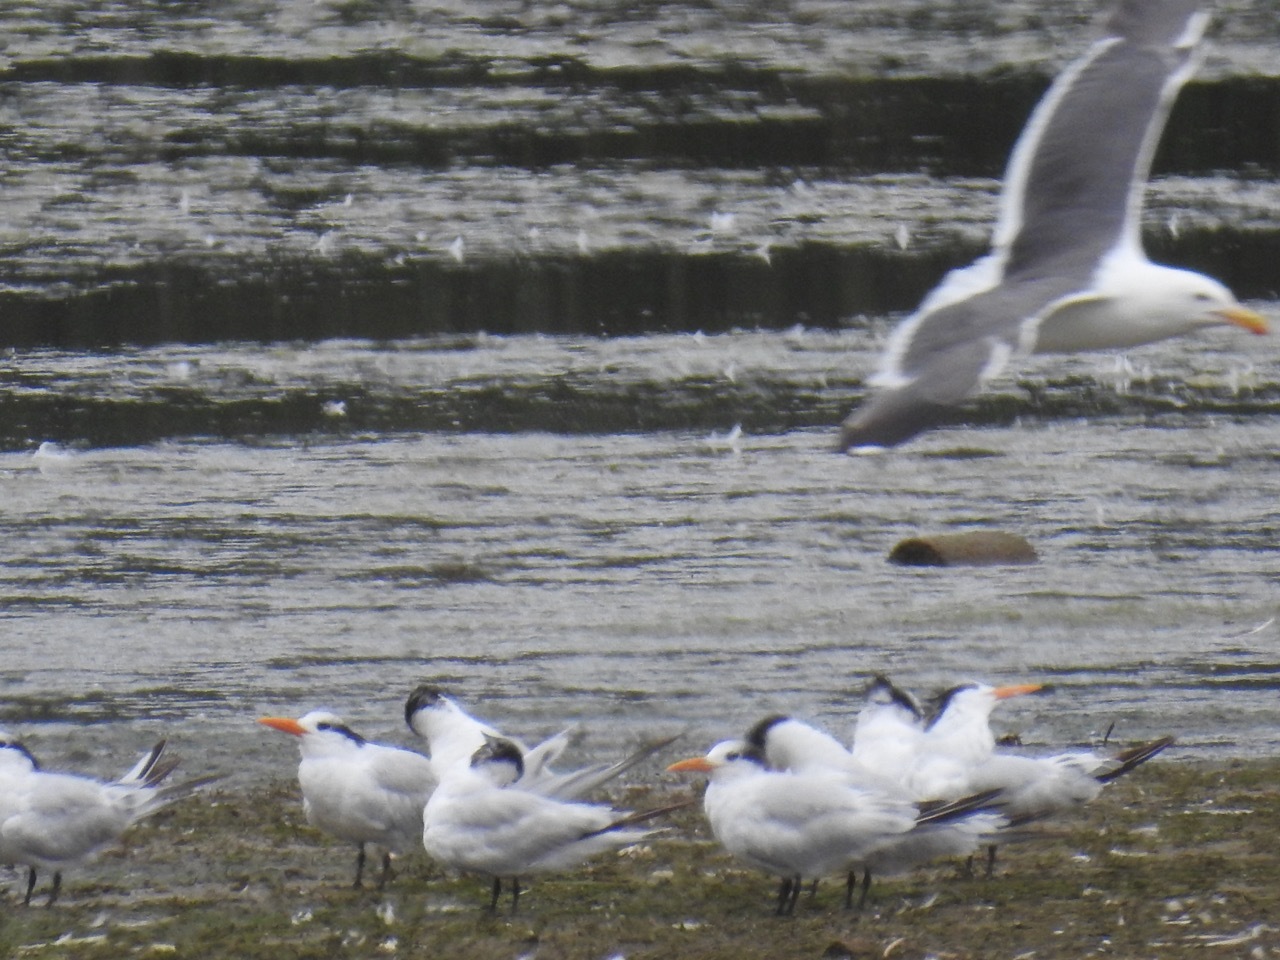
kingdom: Animalia
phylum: Chordata
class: Aves
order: Charadriiformes
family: Laridae
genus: Thalasseus
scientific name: Thalasseus maximus
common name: Royal tern
